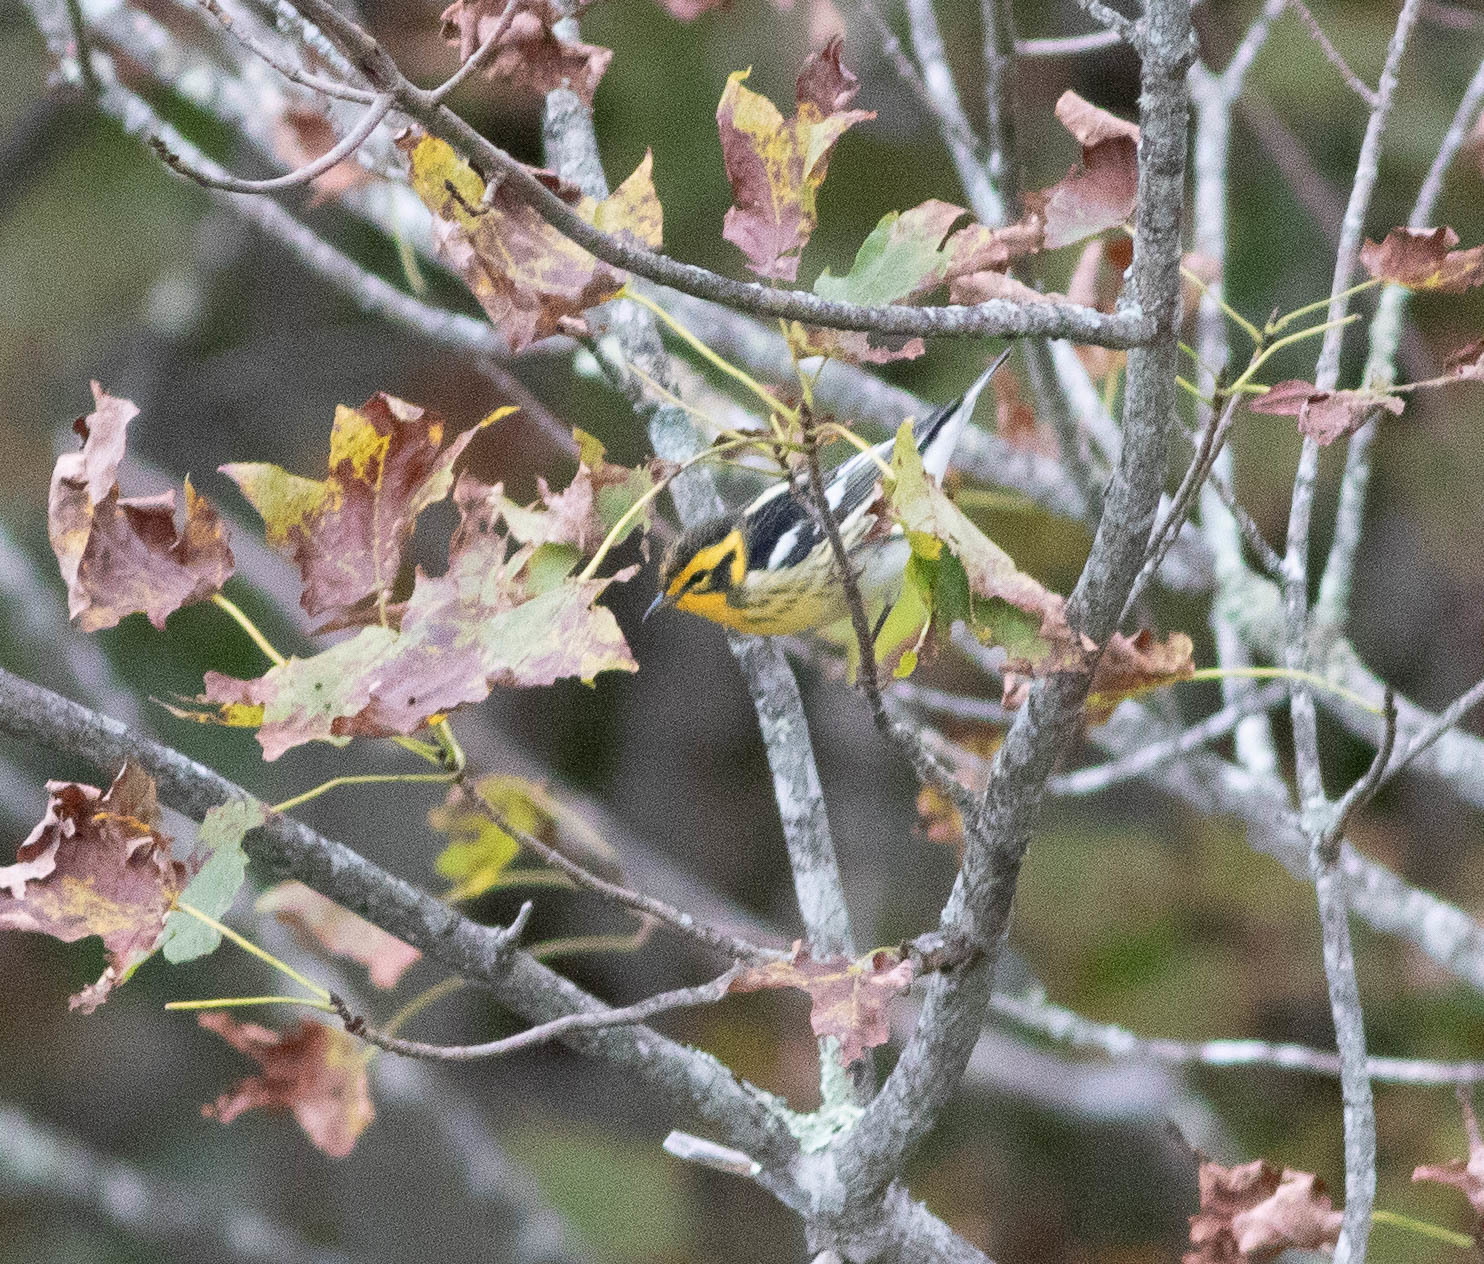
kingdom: Animalia
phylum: Chordata
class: Aves
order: Passeriformes
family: Parulidae
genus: Setophaga
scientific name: Setophaga fusca
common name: Blackburnian warbler
